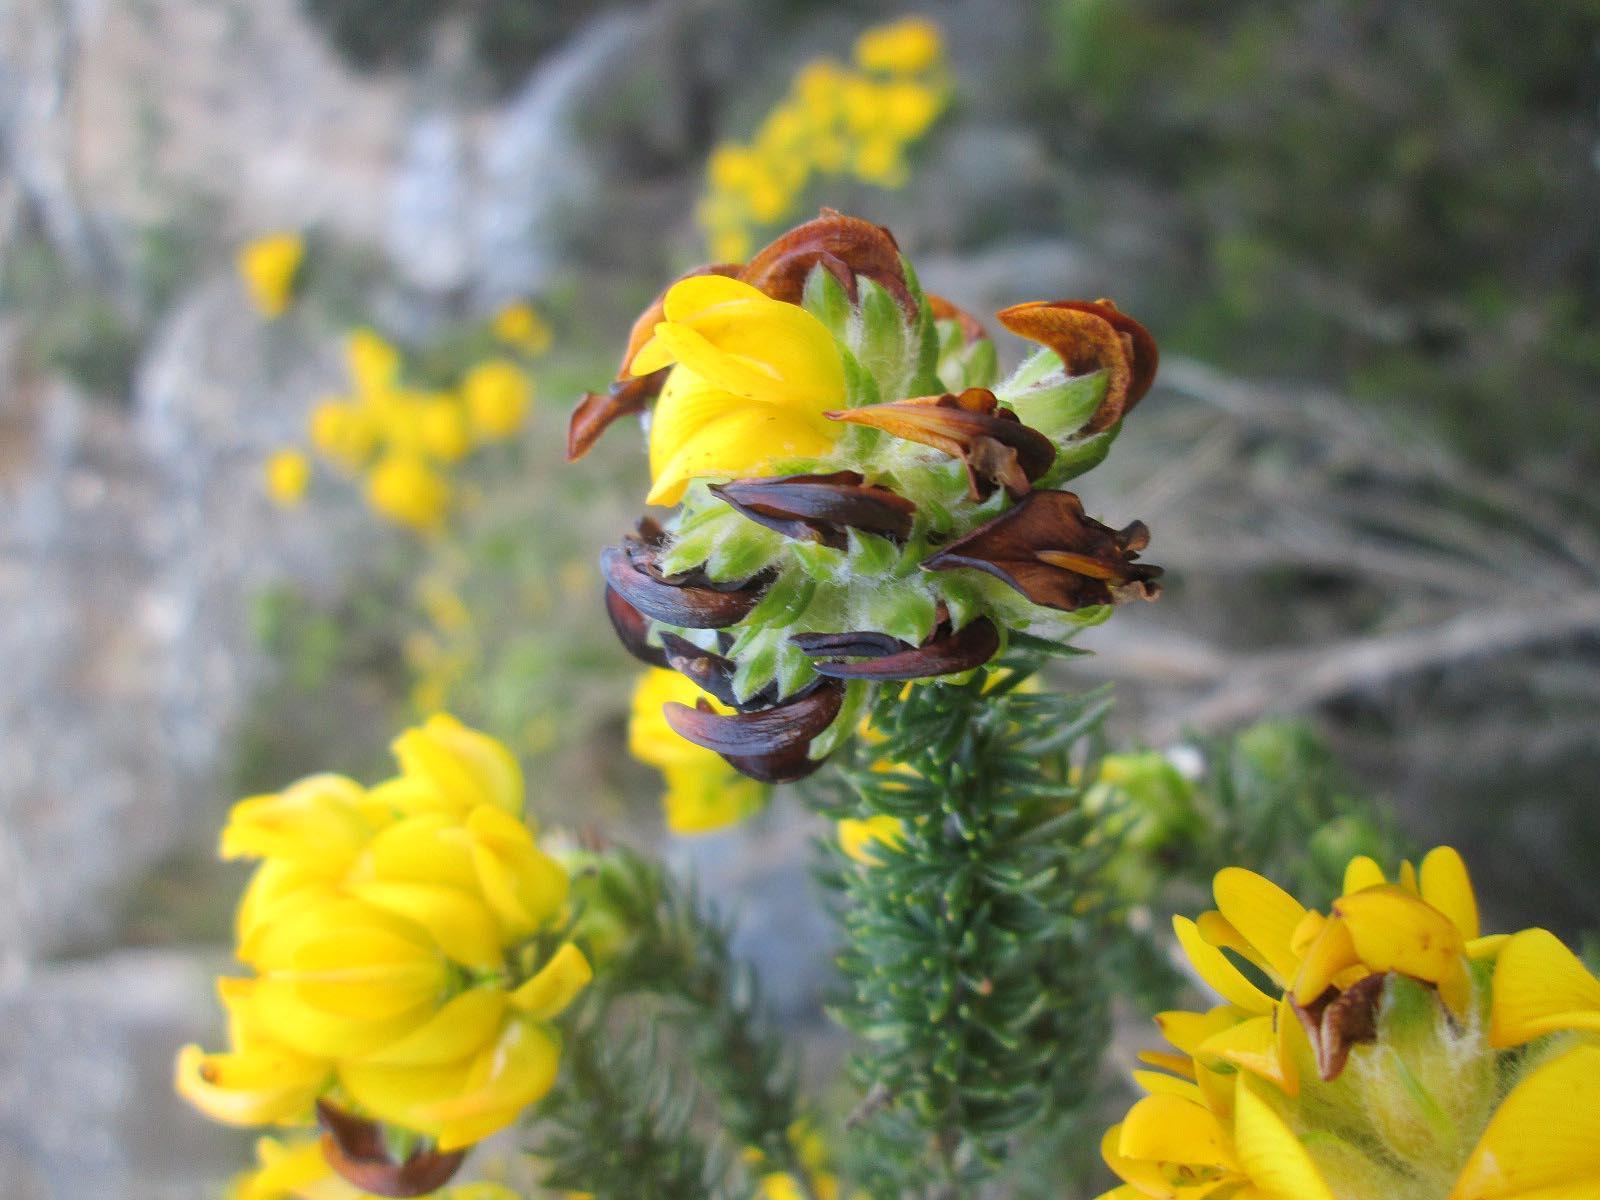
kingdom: Plantae
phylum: Tracheophyta
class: Magnoliopsida
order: Fabales
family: Fabaceae
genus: Aspalathus
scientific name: Aspalathus capitata
